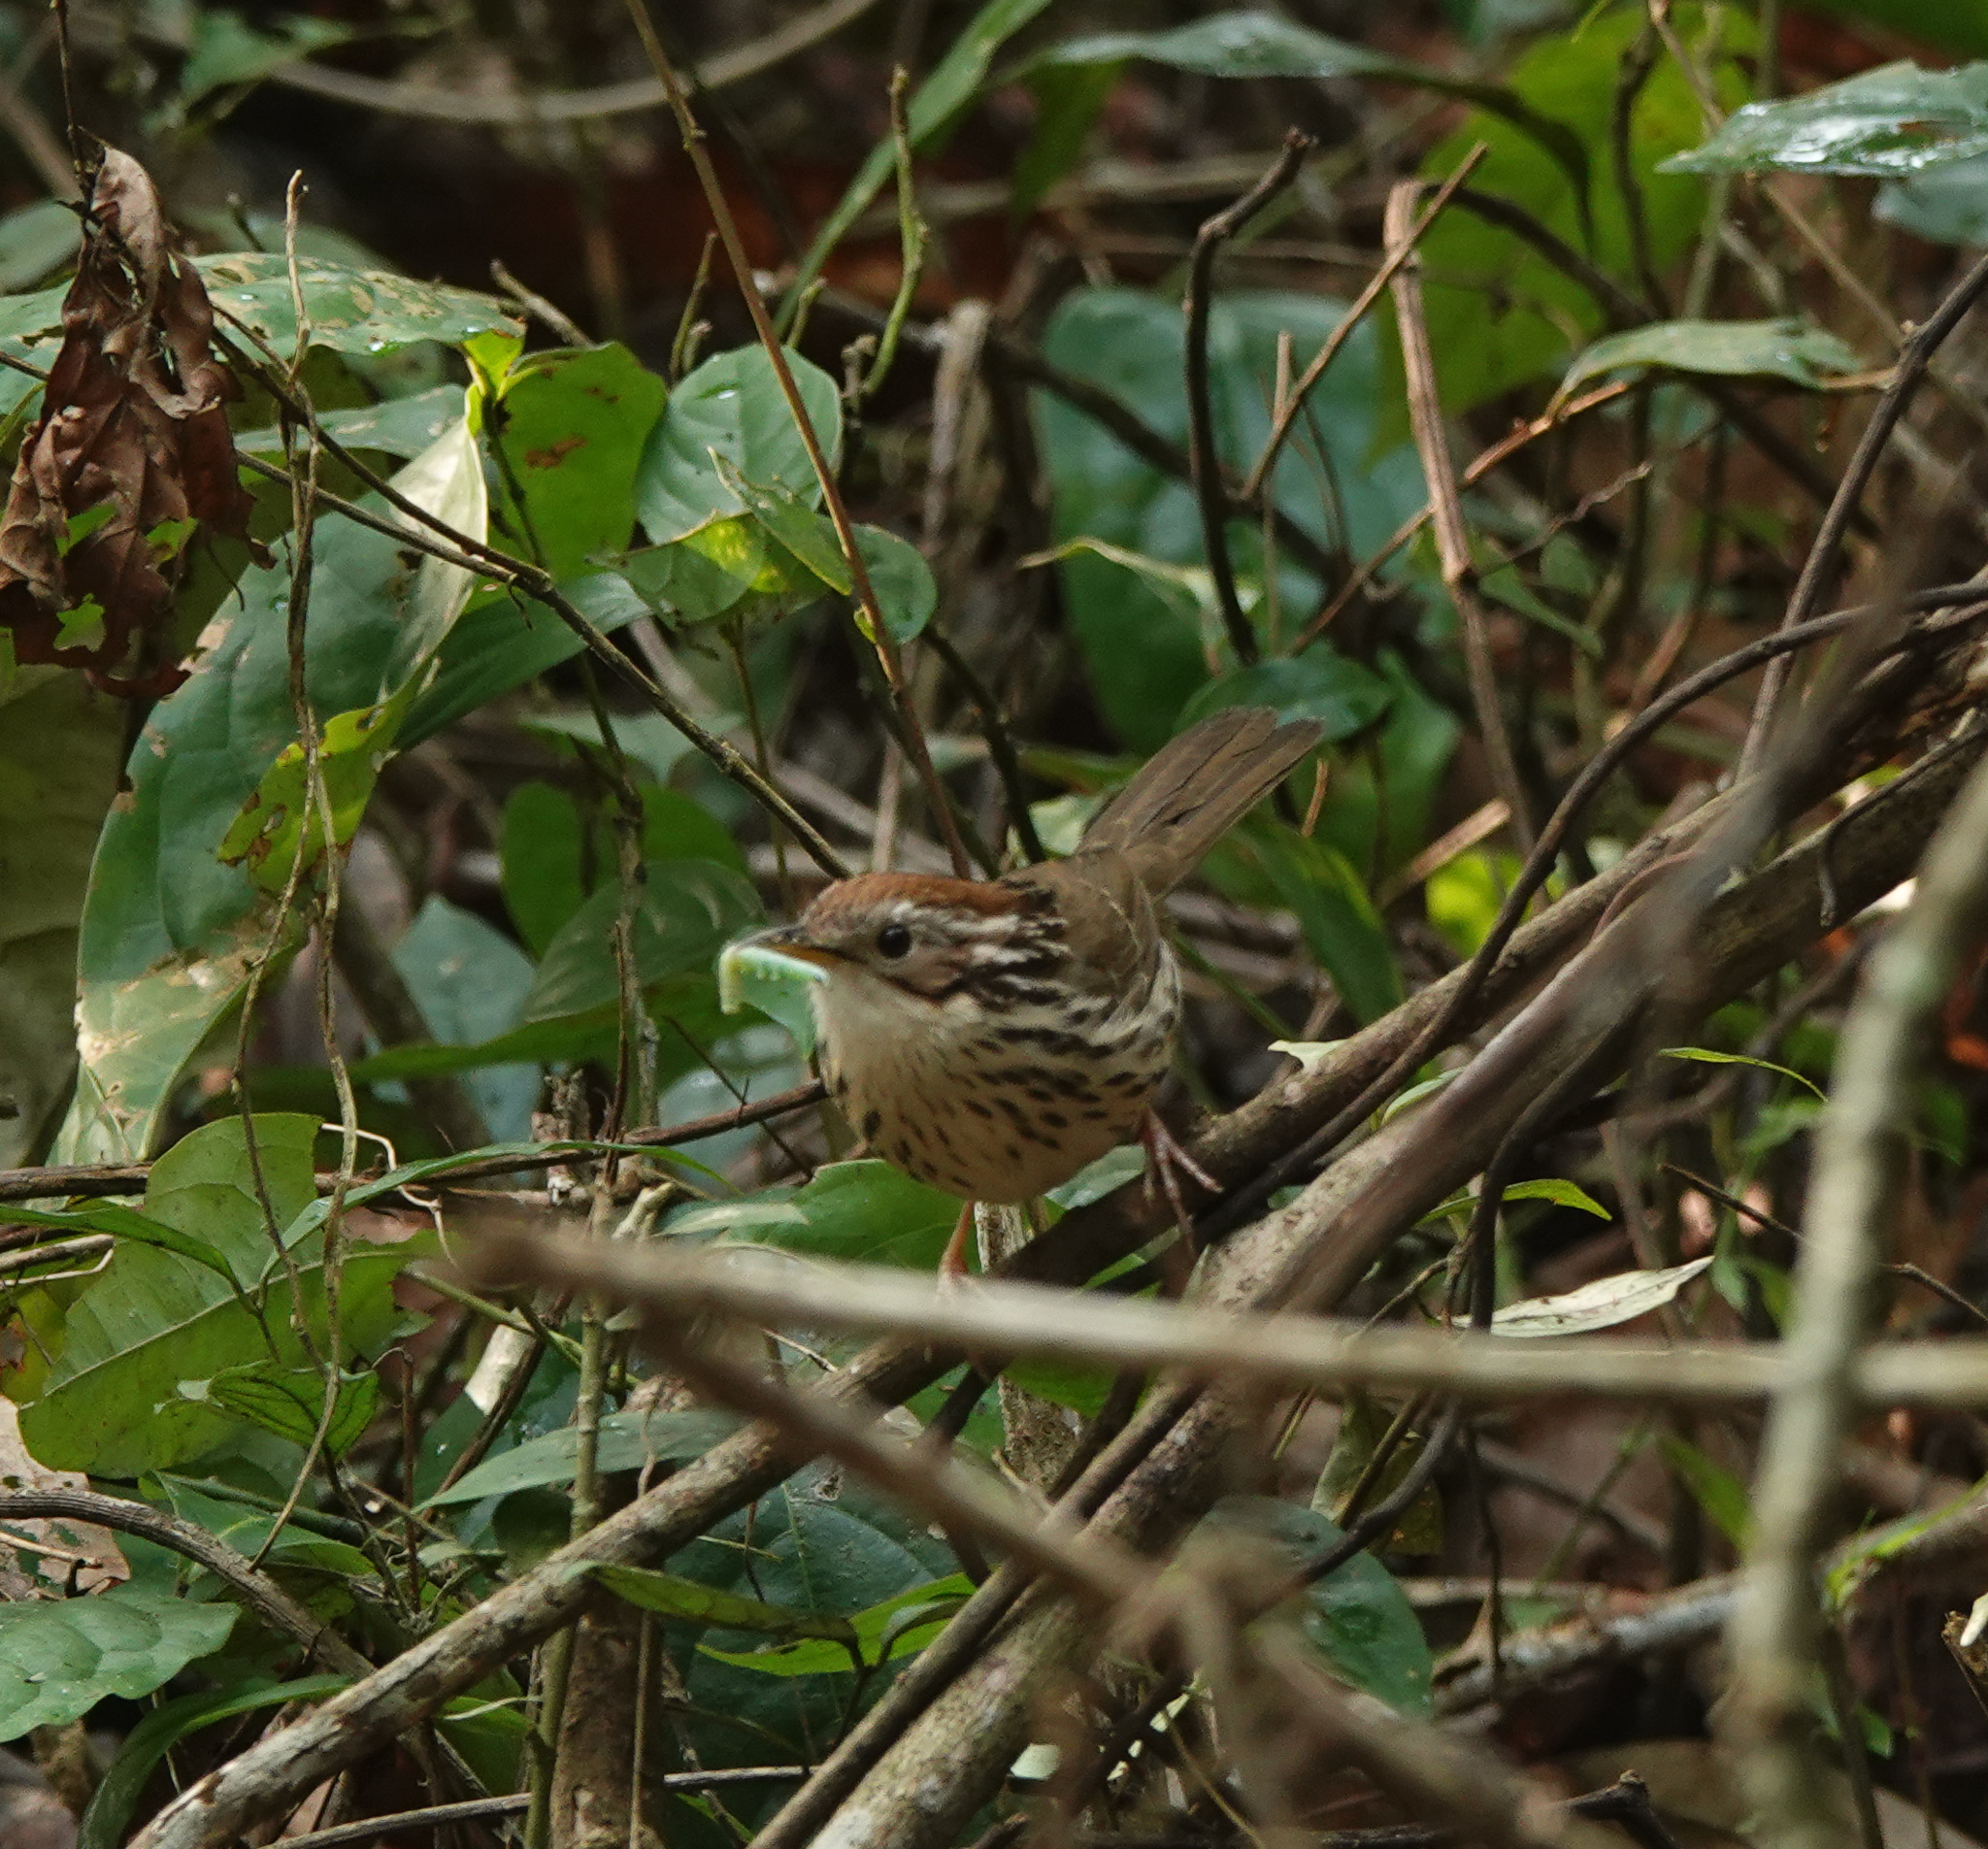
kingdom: Animalia
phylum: Chordata
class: Aves
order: Passeriformes
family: Pellorneidae
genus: Pellorneum
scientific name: Pellorneum ruficeps
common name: Puff-throated babbler
